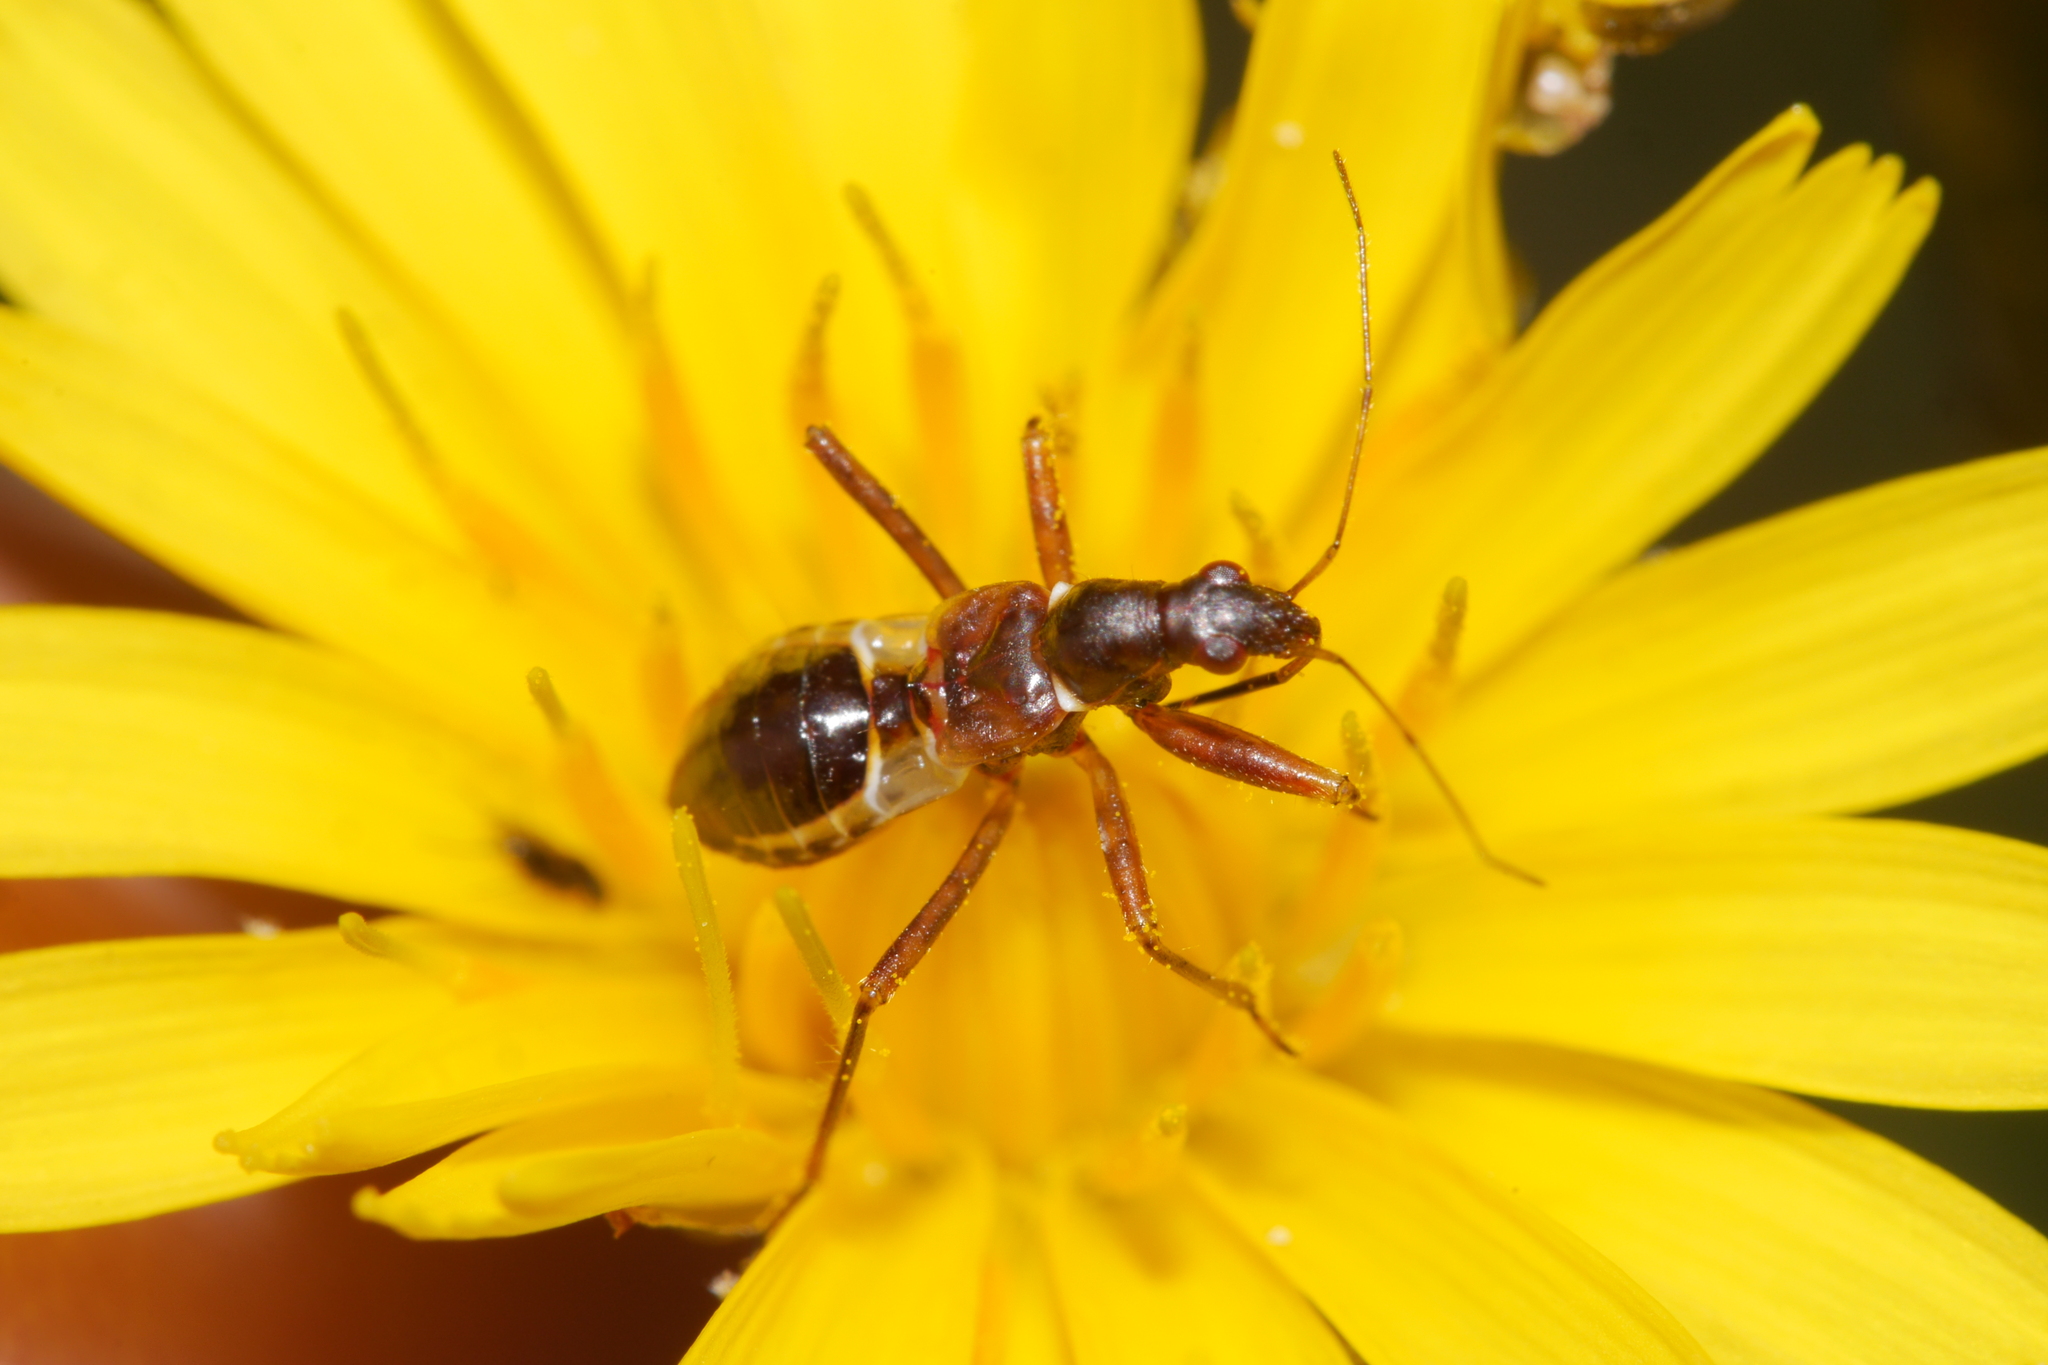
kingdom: Animalia
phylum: Arthropoda
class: Insecta
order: Hemiptera
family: Nabidae
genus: Himacerus
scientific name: Himacerus mirmicoides
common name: Ant damsel bug
